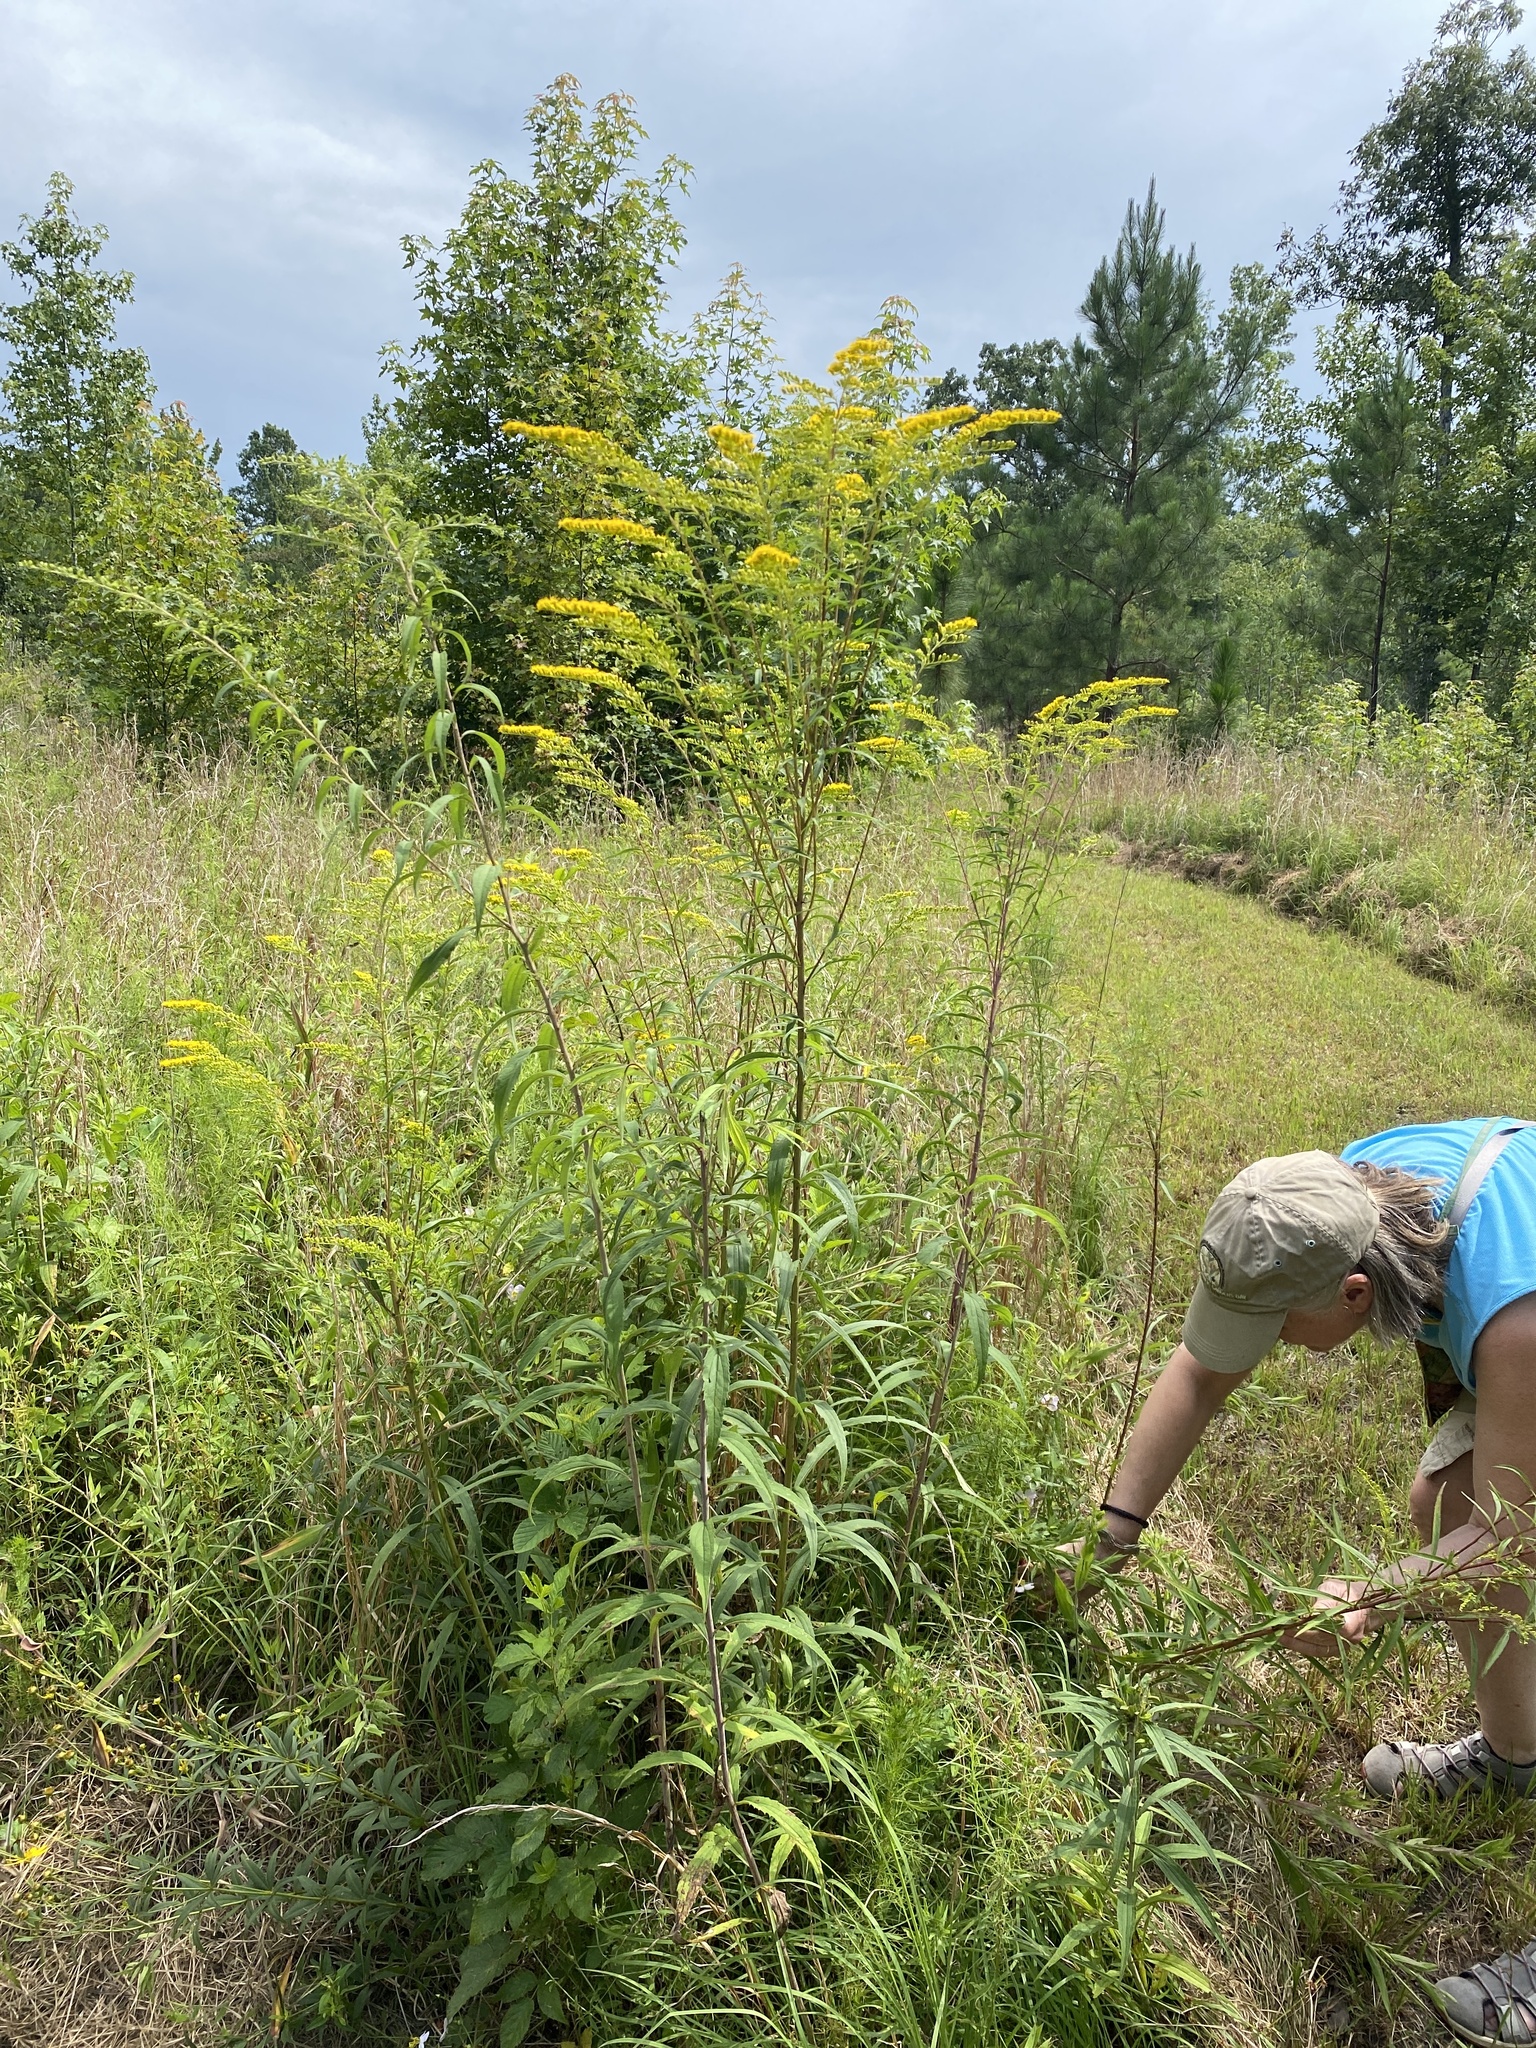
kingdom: Plantae
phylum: Tracheophyta
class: Magnoliopsida
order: Asterales
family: Asteraceae
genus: Solidago
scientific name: Solidago pinetorum
